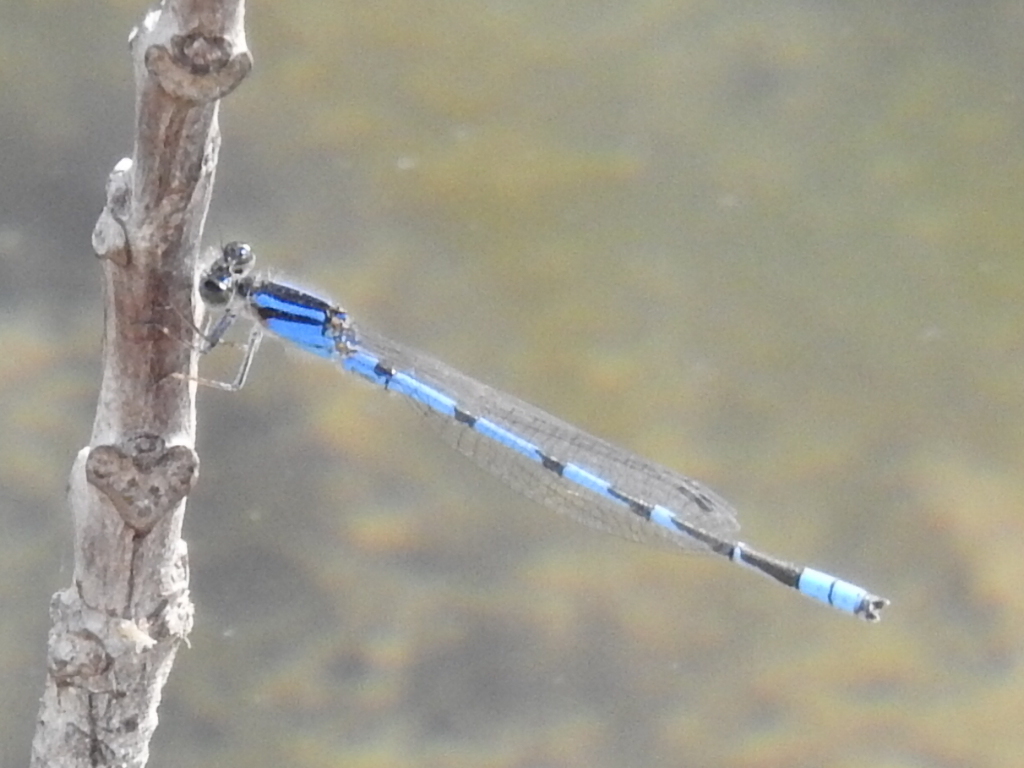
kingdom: Animalia
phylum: Arthropoda
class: Insecta
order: Odonata
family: Coenagrionidae
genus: Enallagma
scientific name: Enallagma civile
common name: Damselfly
